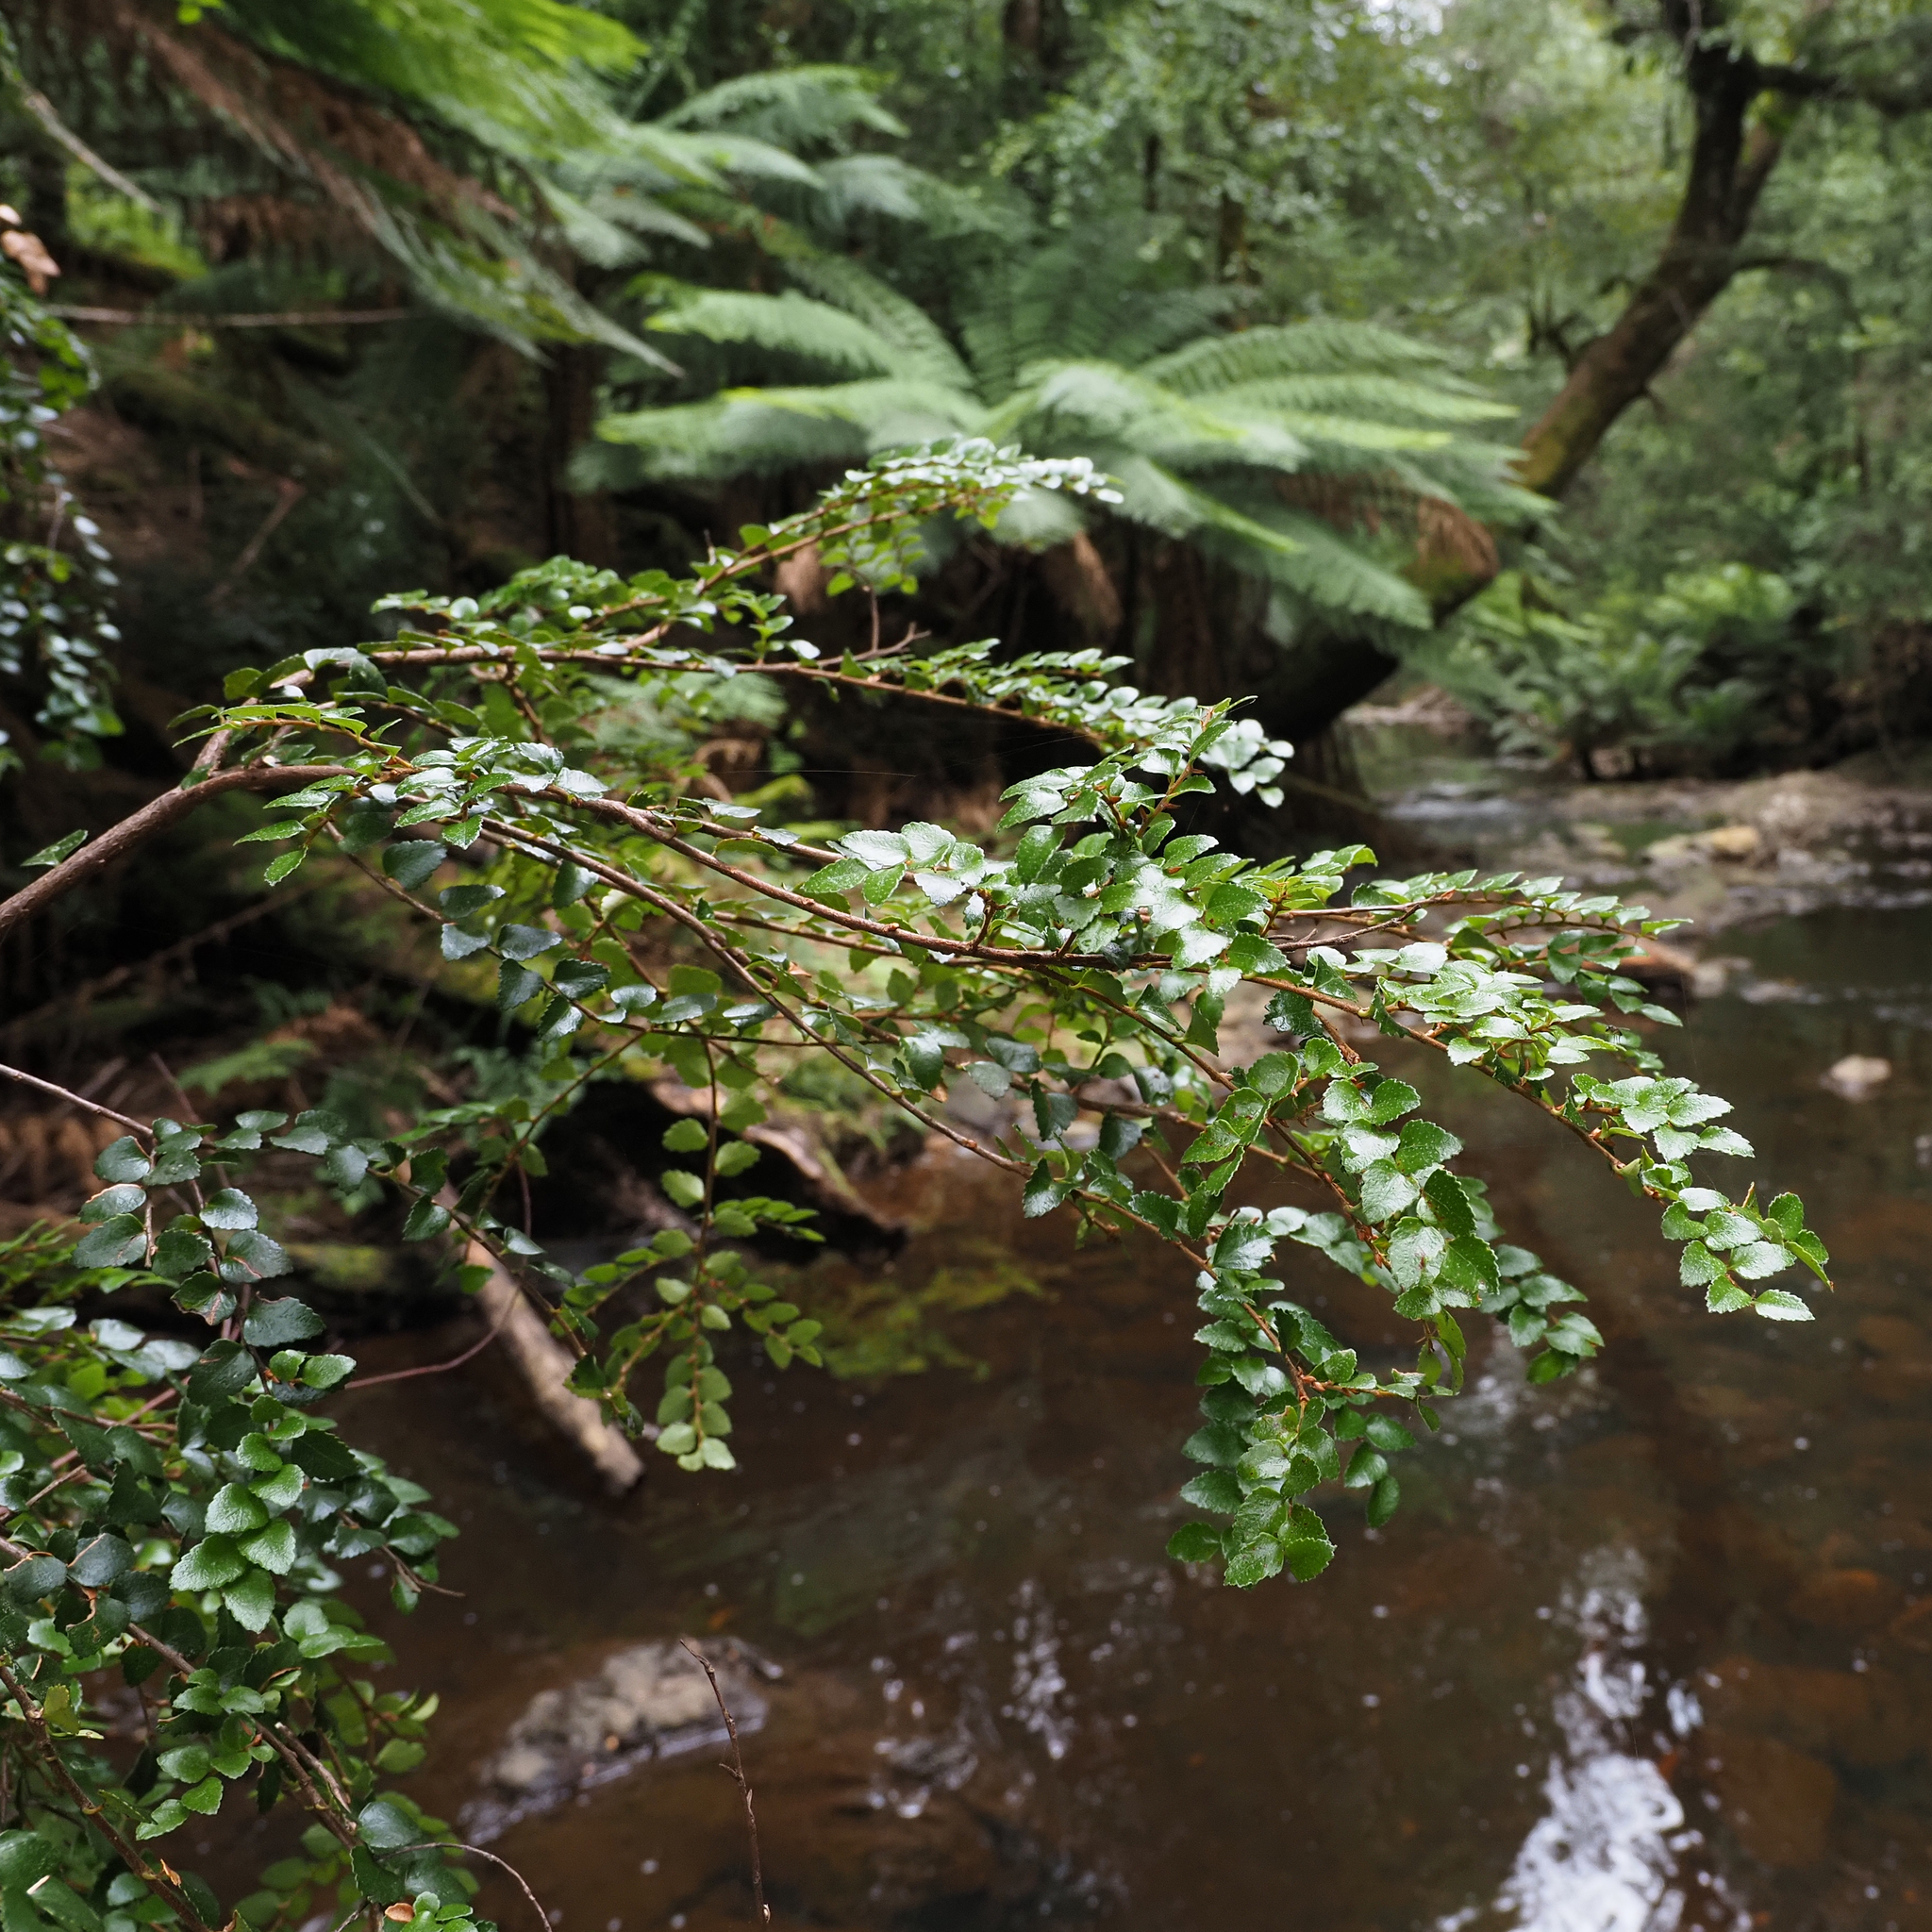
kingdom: Plantae
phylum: Tracheophyta
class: Magnoliopsida
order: Fagales
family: Nothofagaceae
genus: Nothofagus
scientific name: Nothofagus cunninghamii
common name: Myrtle beech
